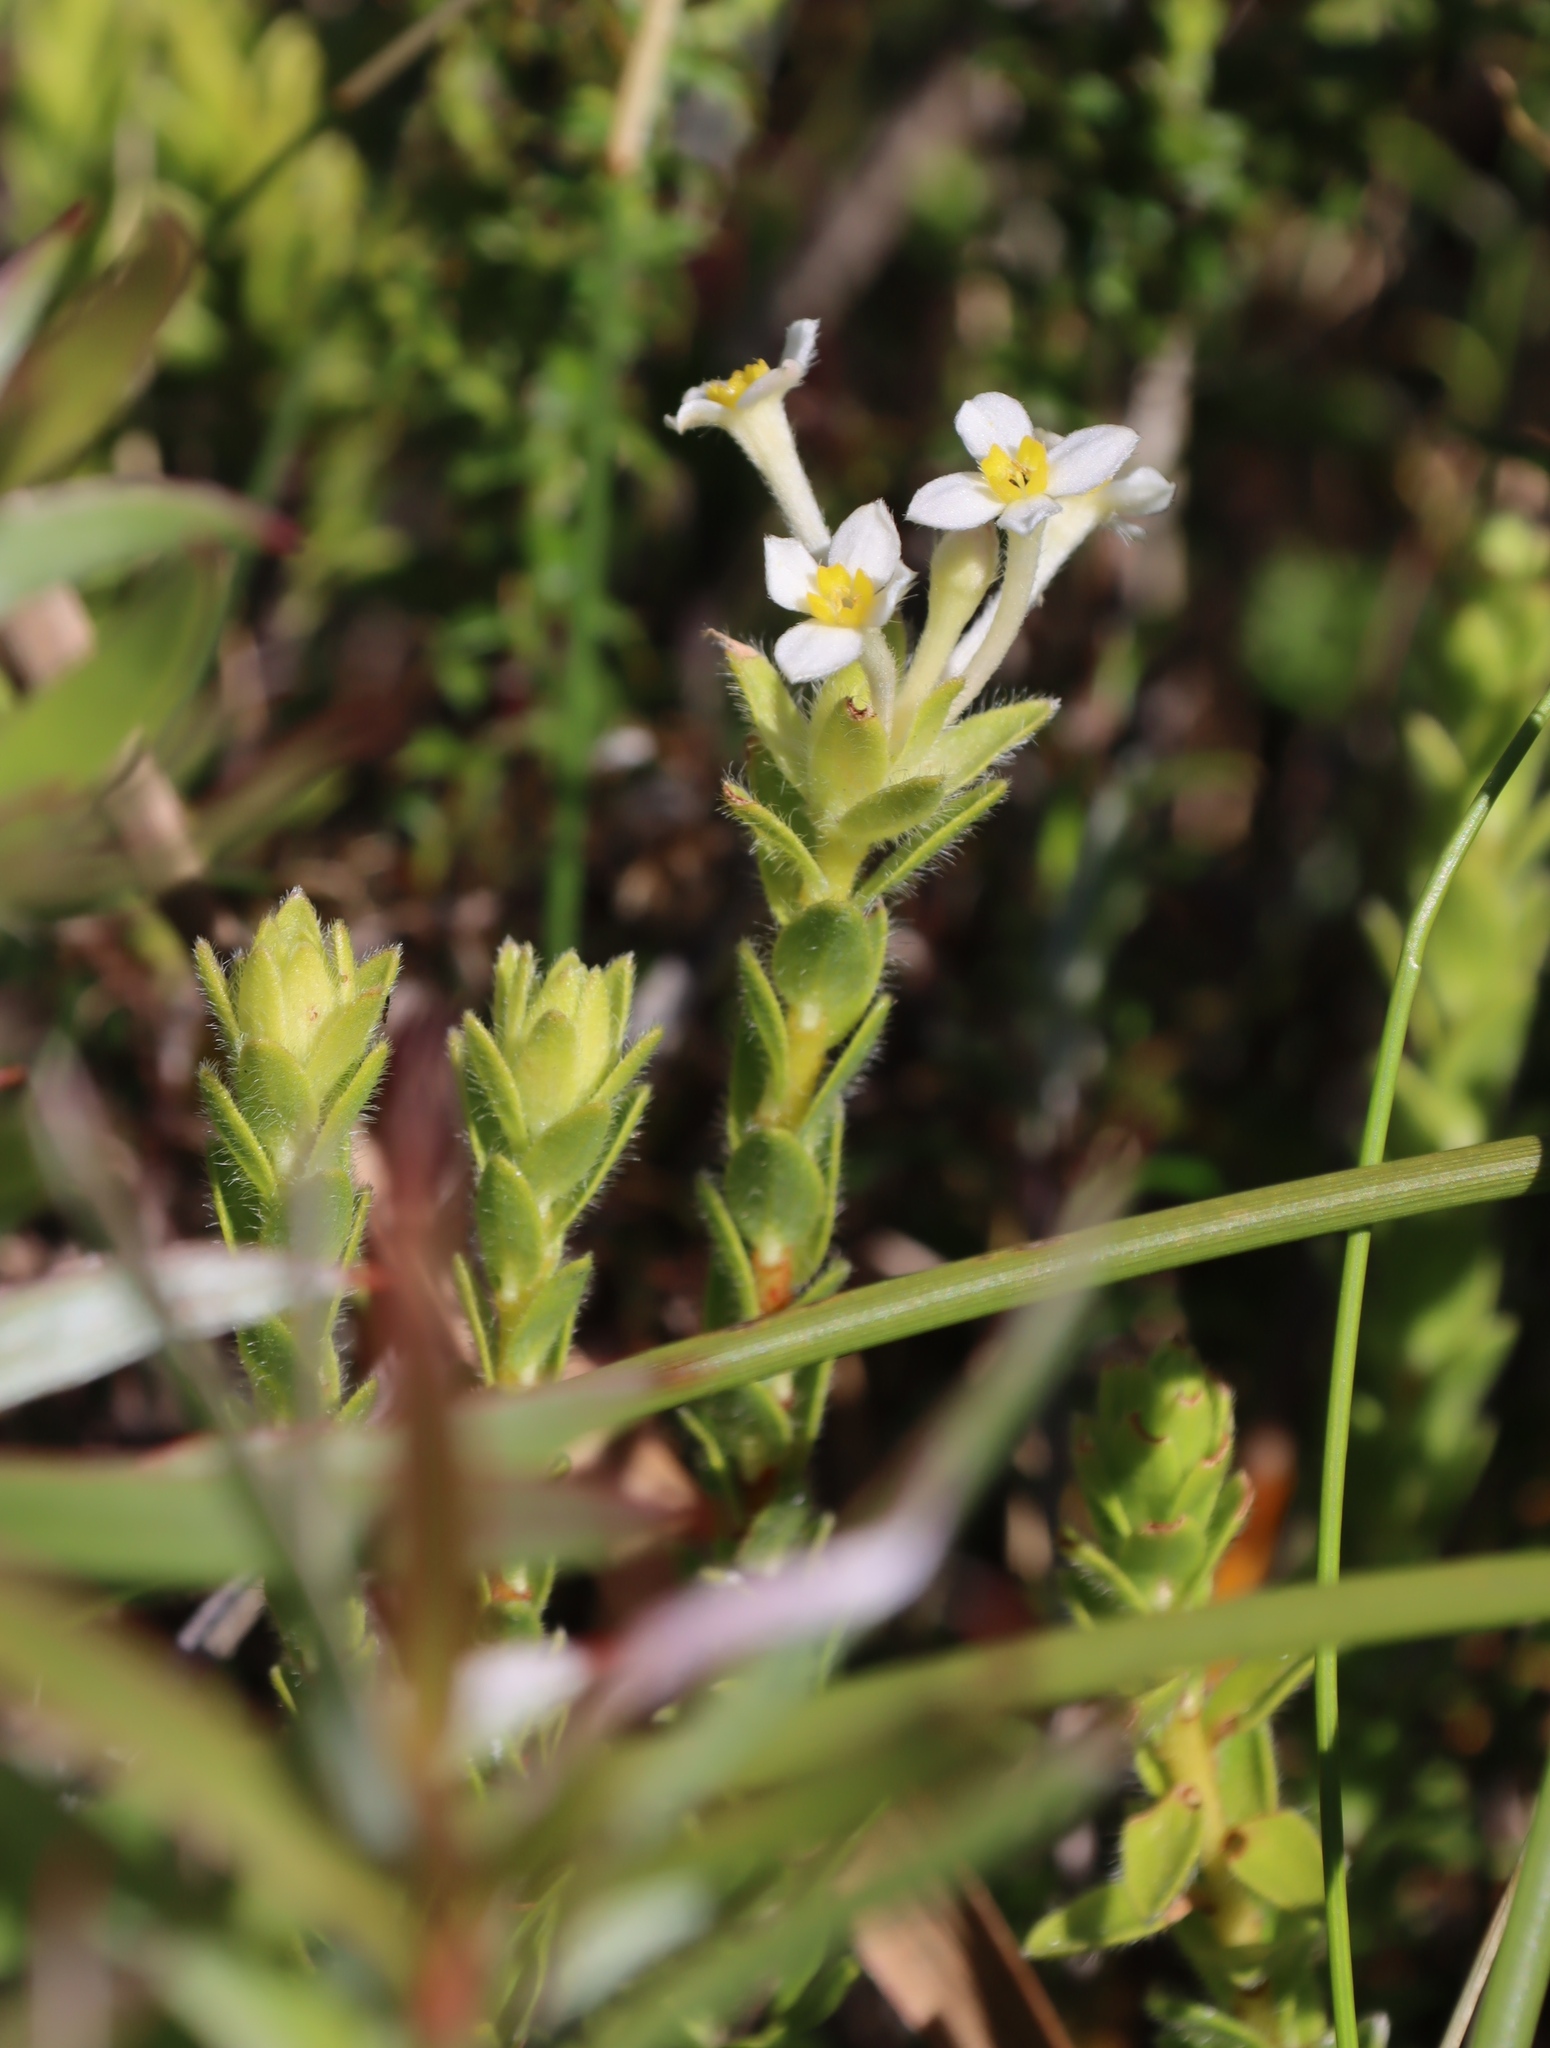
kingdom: Plantae
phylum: Tracheophyta
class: Magnoliopsida
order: Malvales
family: Thymelaeaceae
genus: Gnidia
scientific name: Gnidia tomentosa
